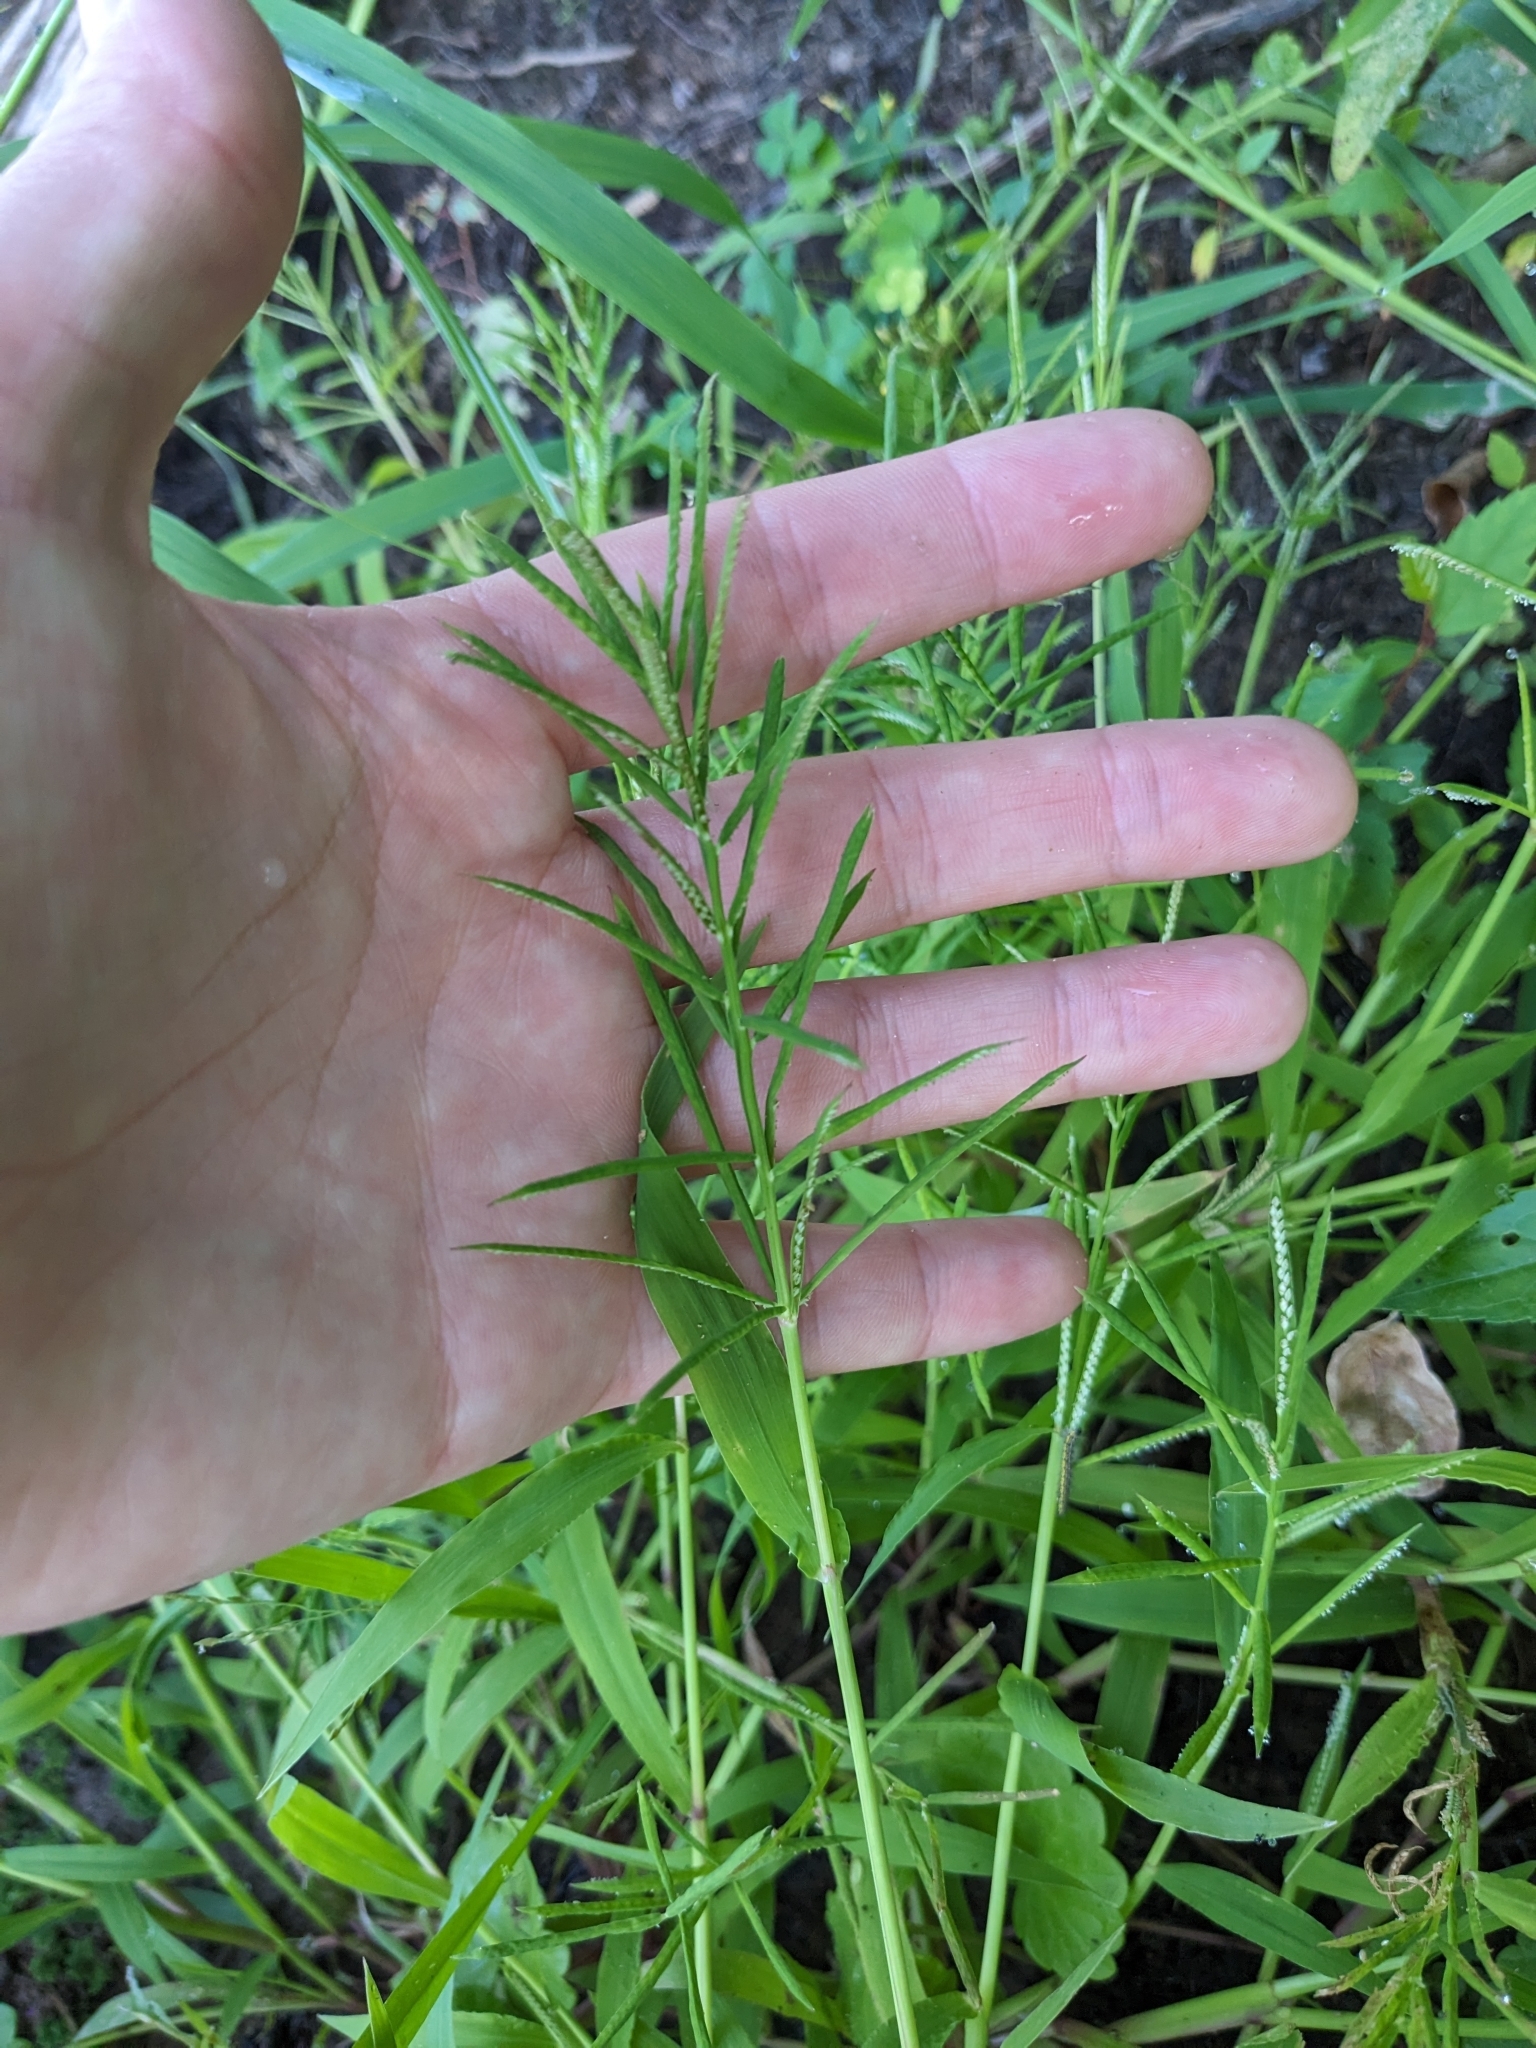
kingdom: Plantae
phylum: Tracheophyta
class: Liliopsida
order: Poales
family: Poaceae
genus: Paspalum
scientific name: Paspalum repens
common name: Water paspalum
